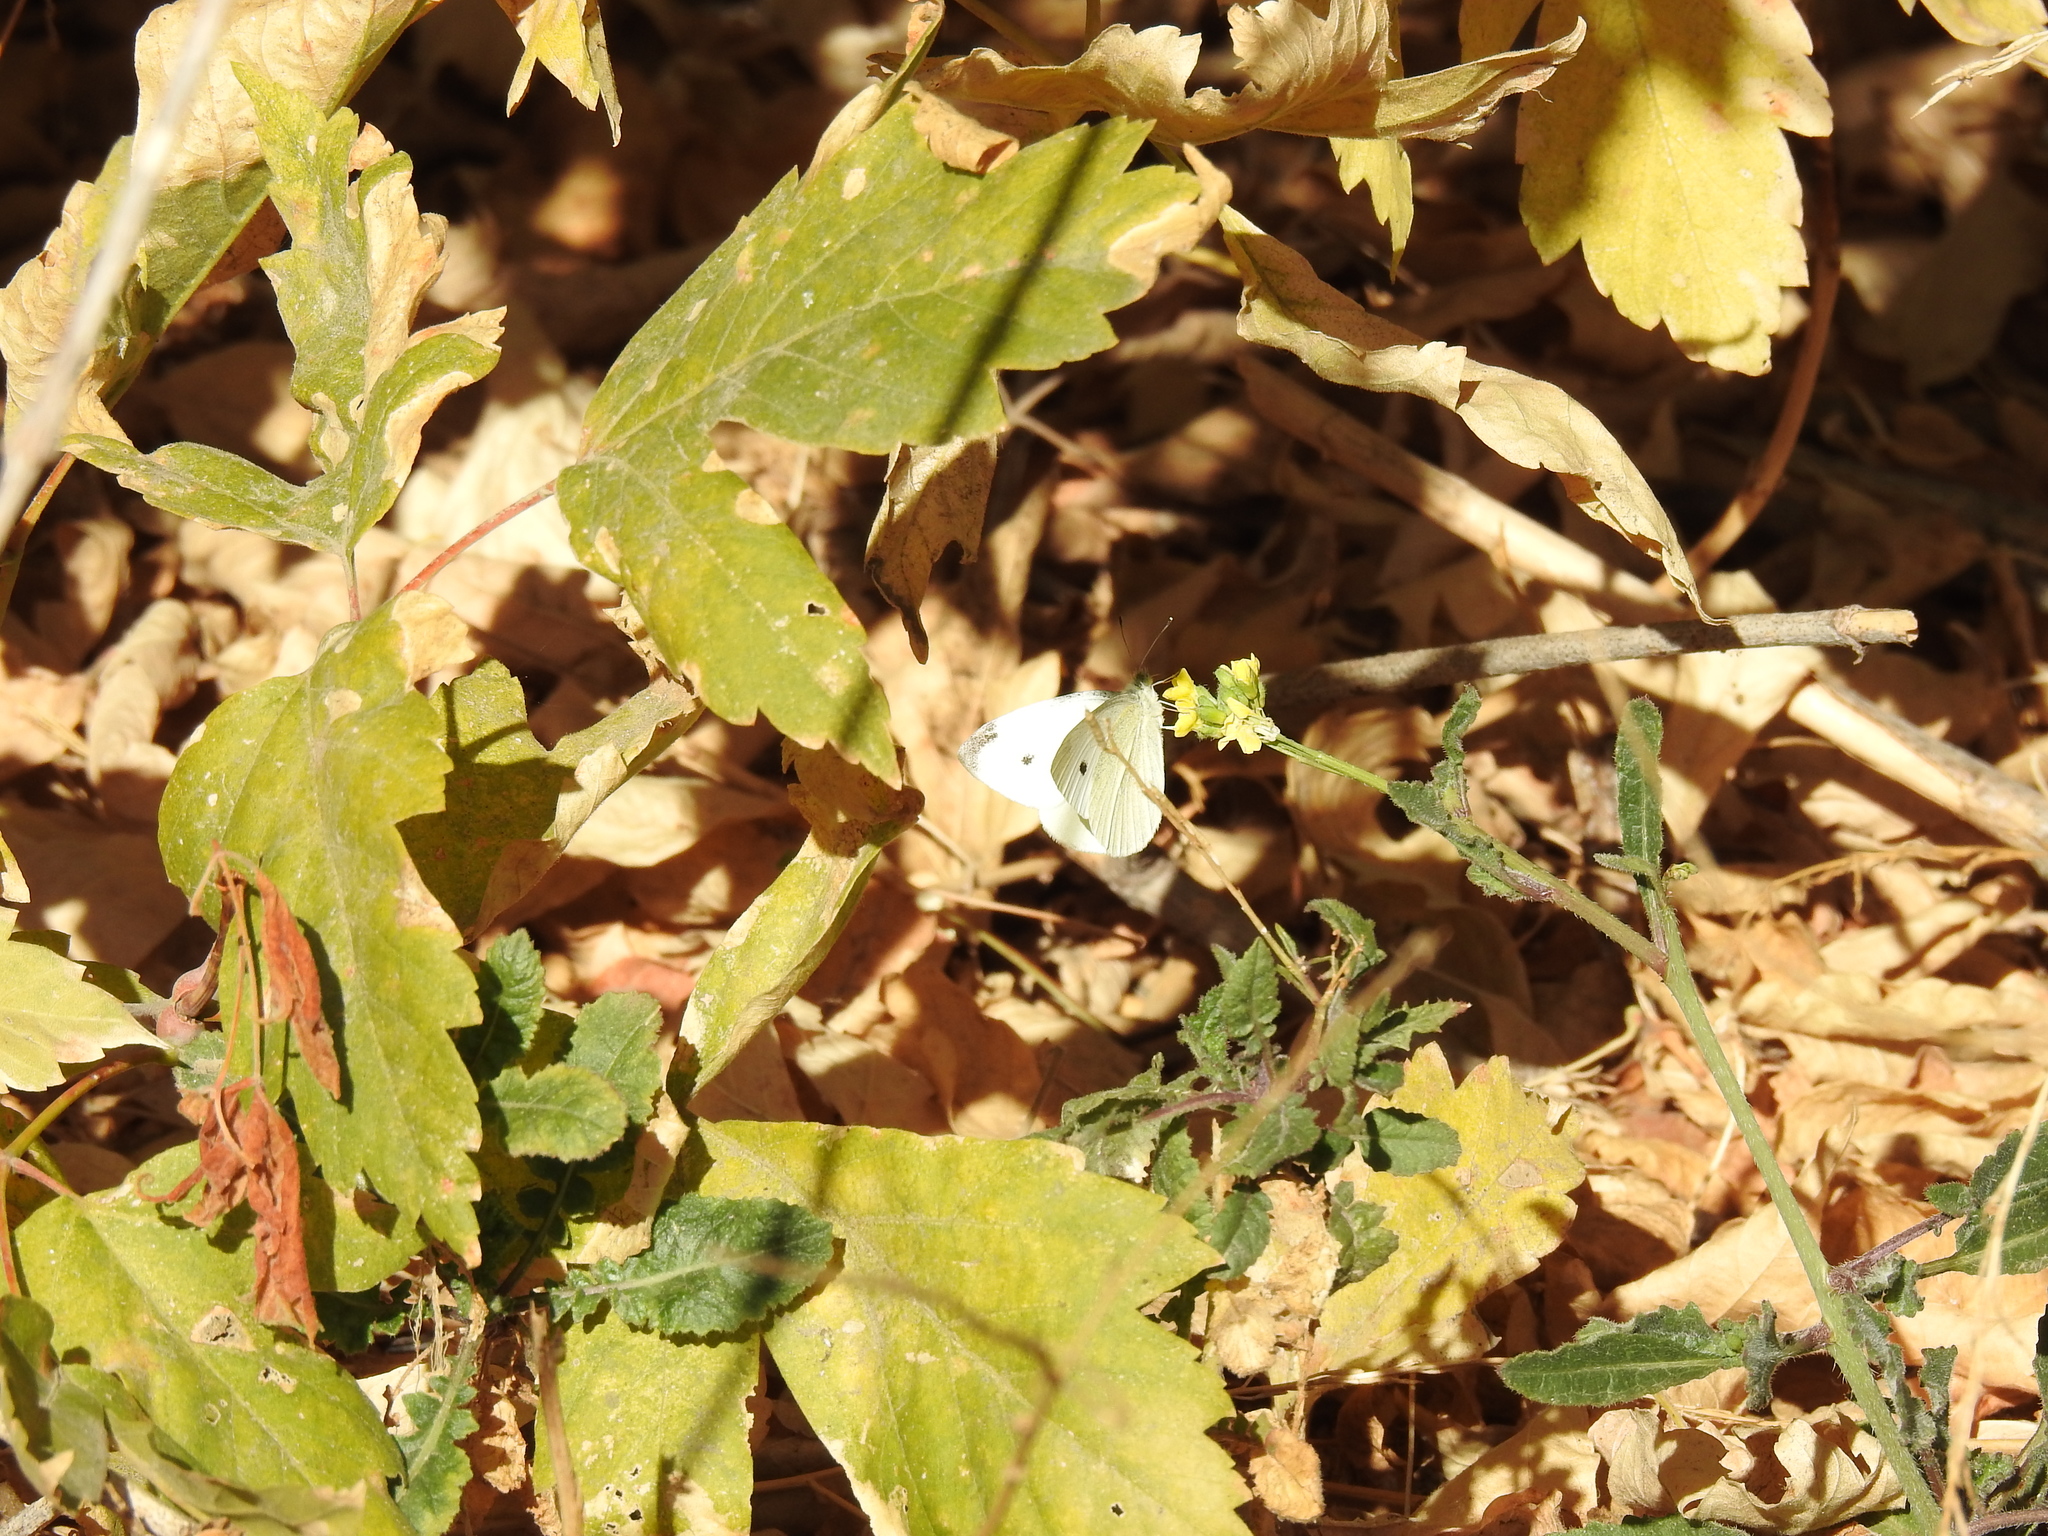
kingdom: Animalia
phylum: Arthropoda
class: Insecta
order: Lepidoptera
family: Pieridae
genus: Pieris
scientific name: Pieris rapae
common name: Small white
